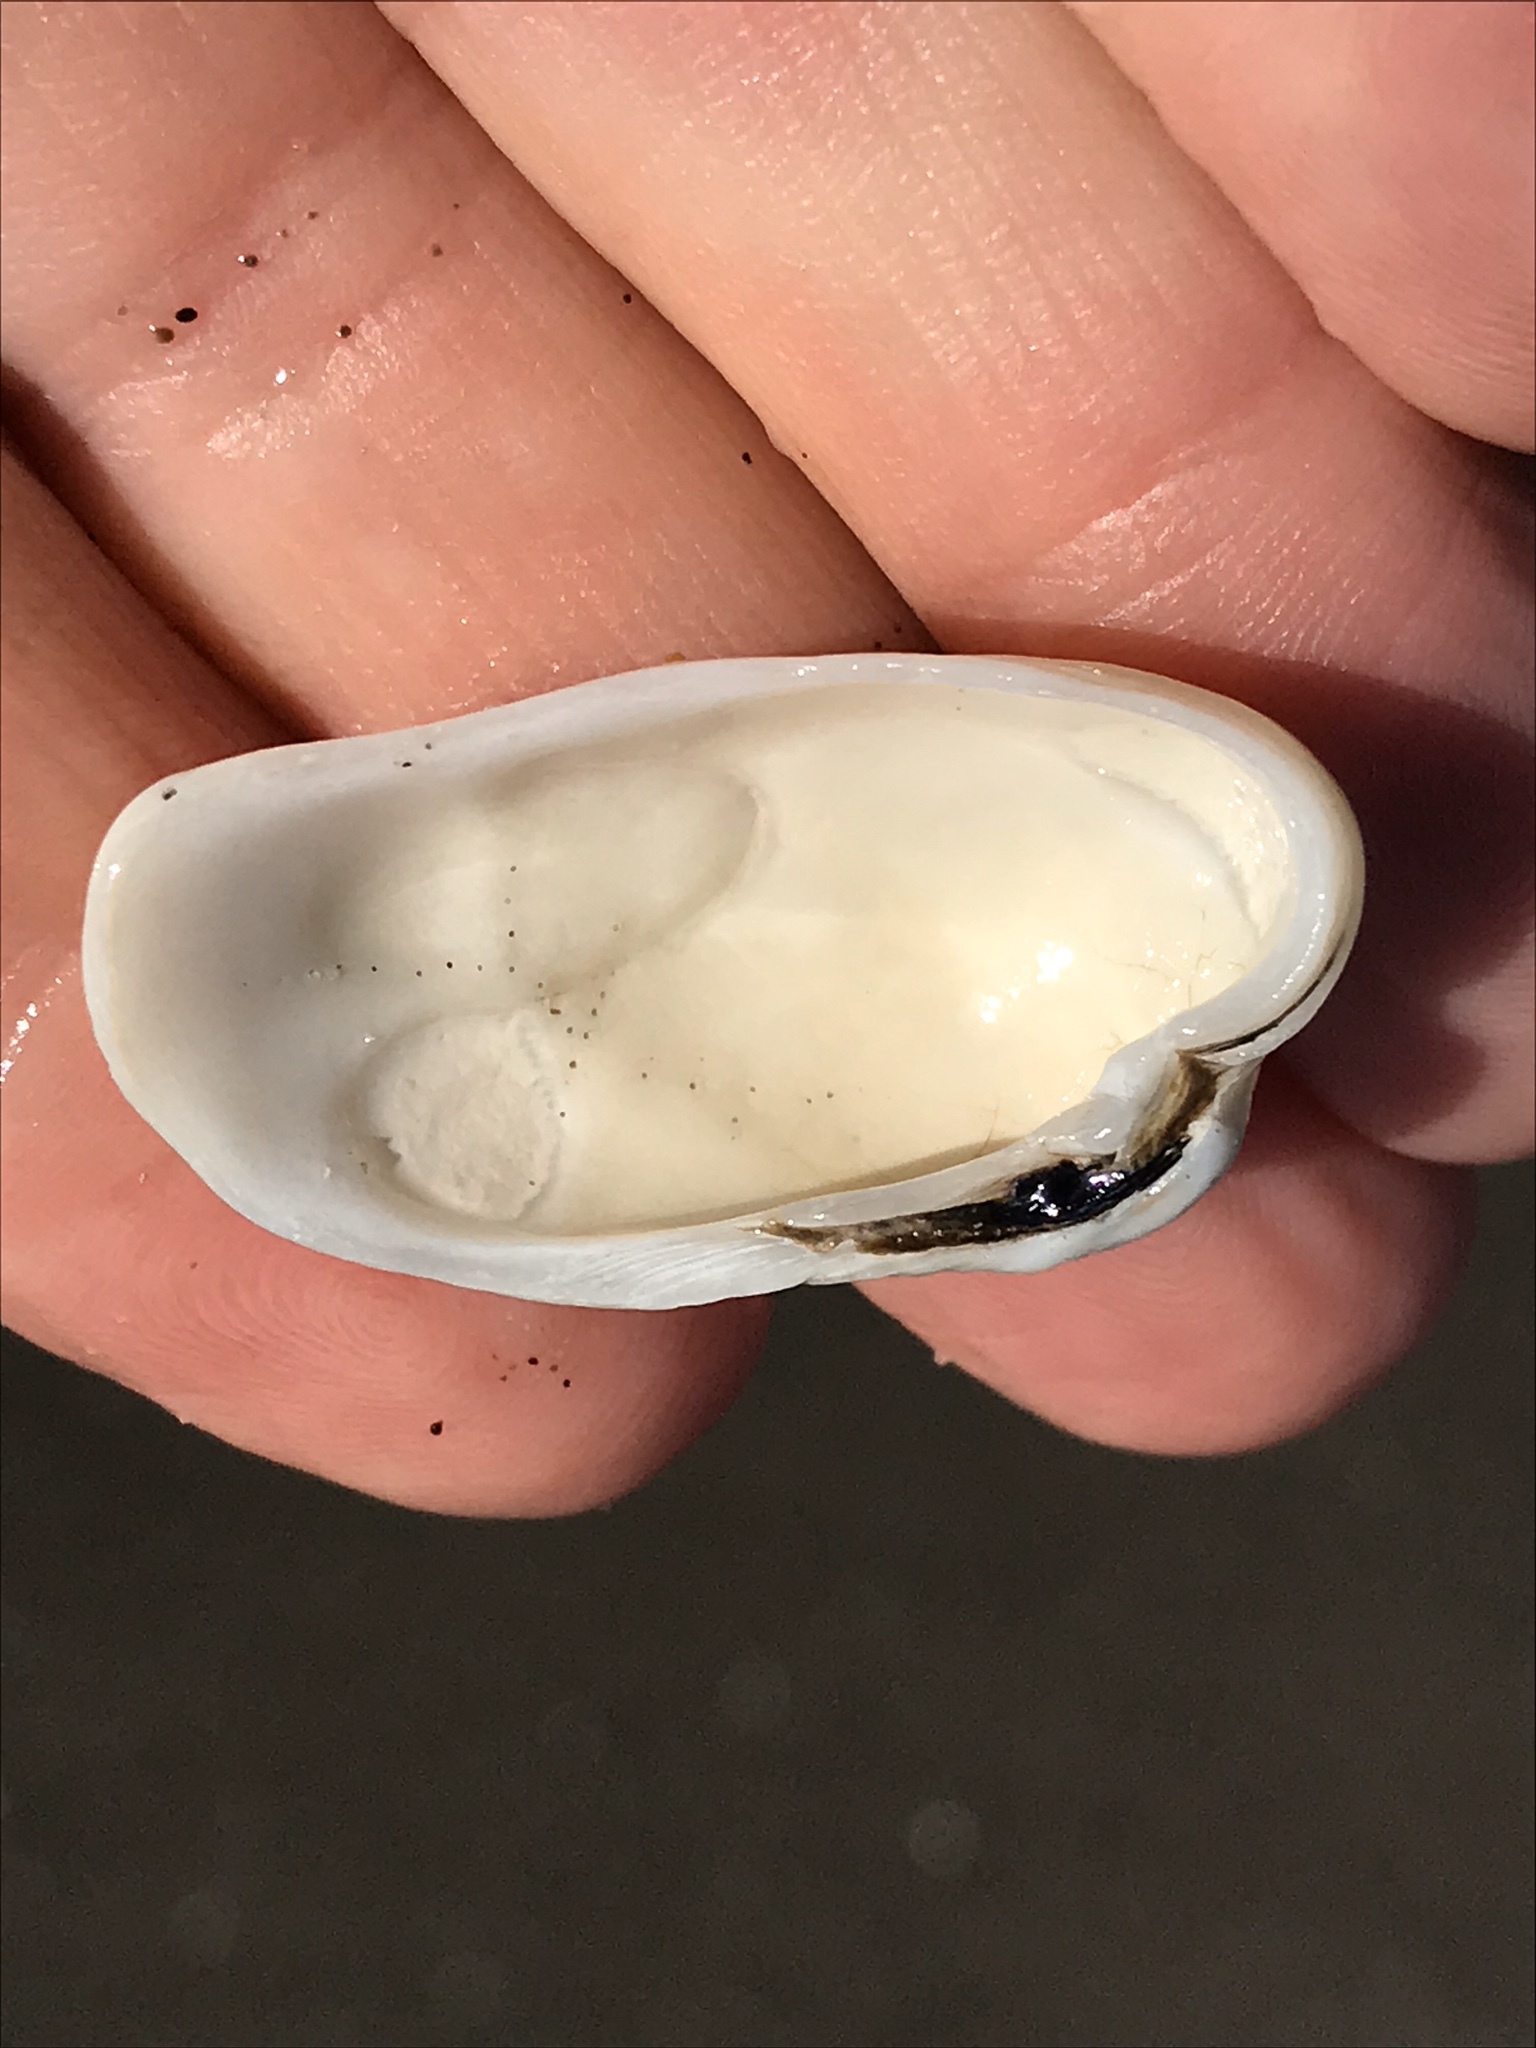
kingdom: Animalia
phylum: Mollusca
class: Bivalvia
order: Venerida
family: Veneridae
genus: Petricola
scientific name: Petricola carditoides
